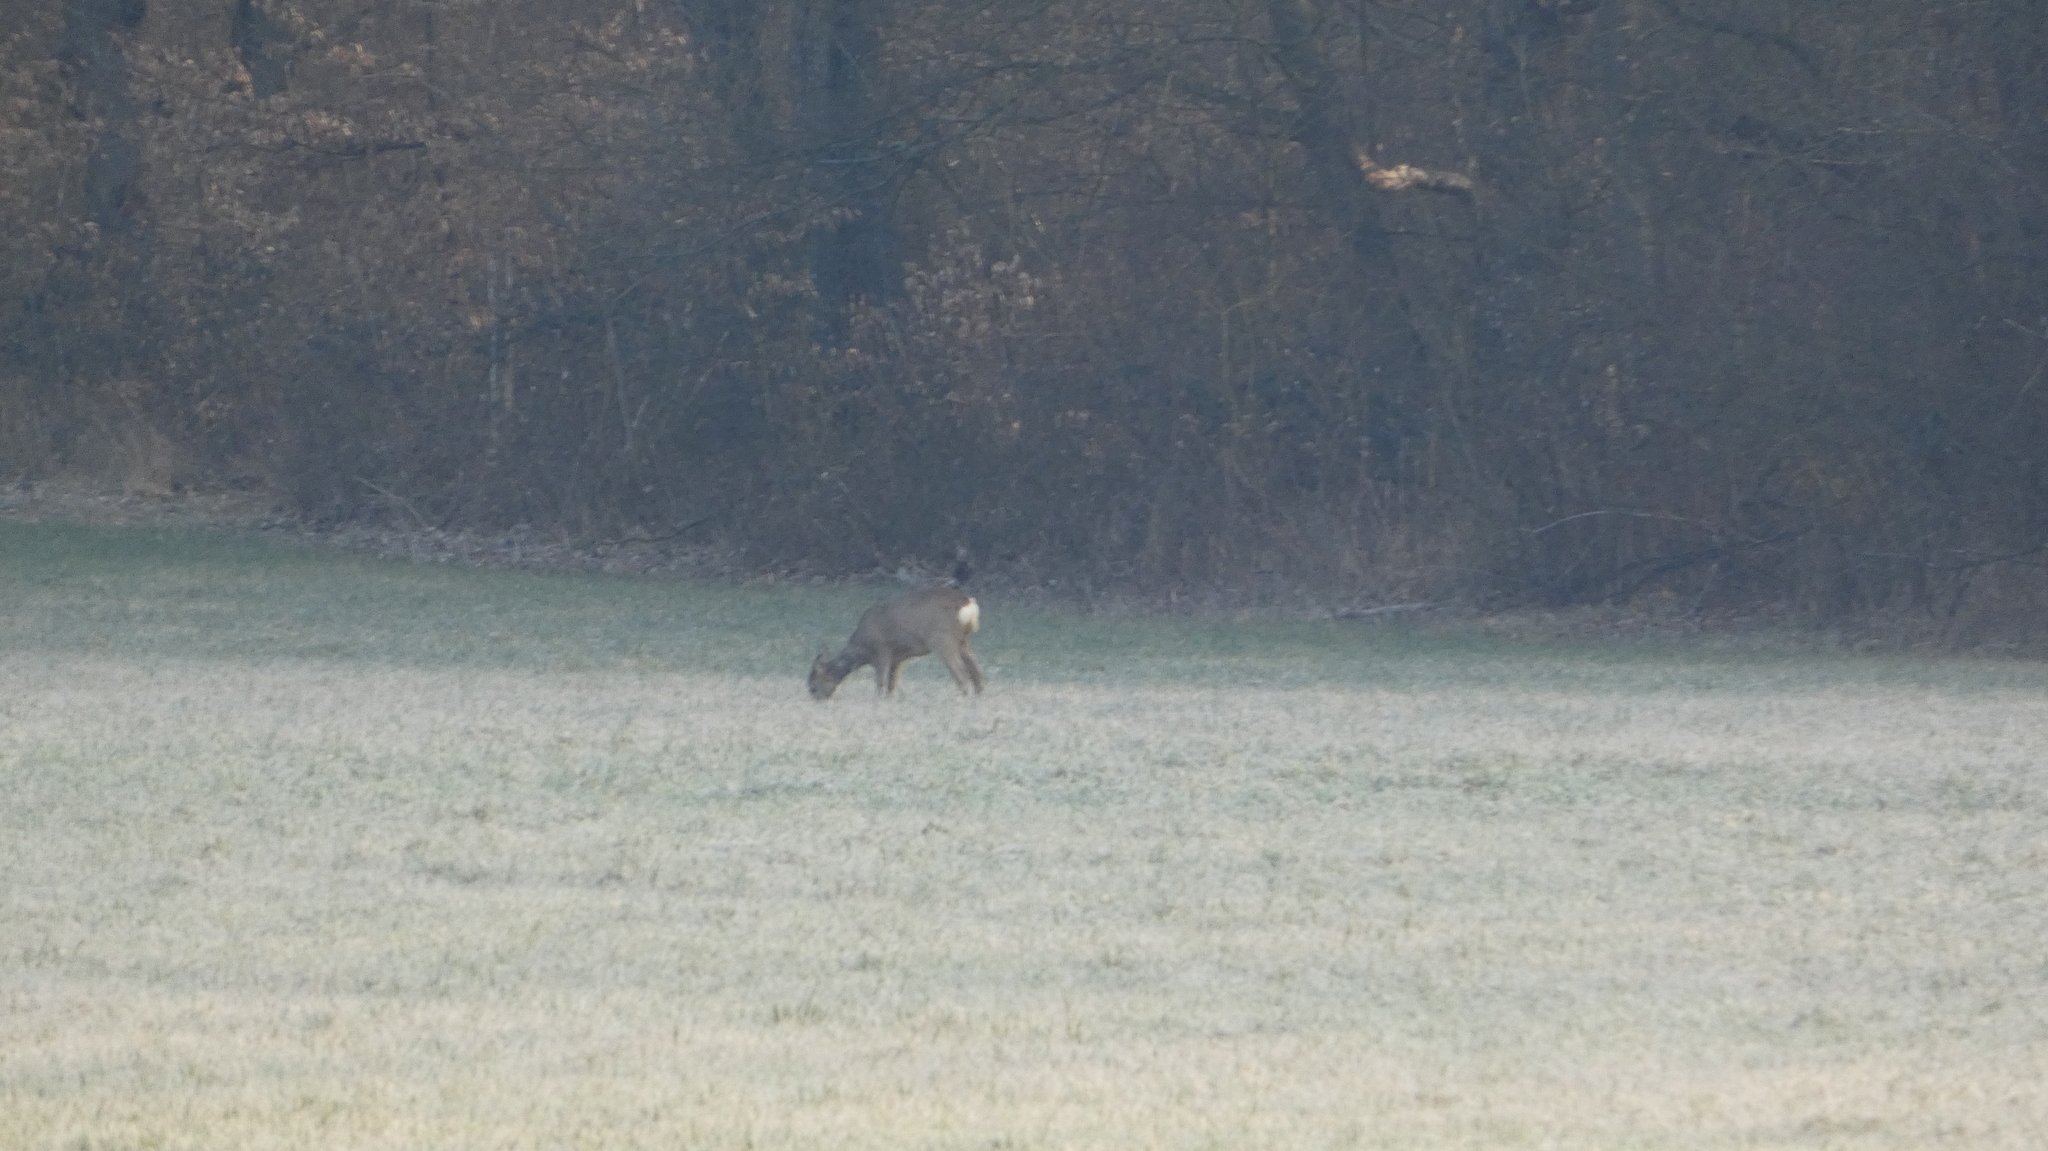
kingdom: Animalia
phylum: Chordata
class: Mammalia
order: Artiodactyla
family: Cervidae
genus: Capreolus
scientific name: Capreolus capreolus
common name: Western roe deer
